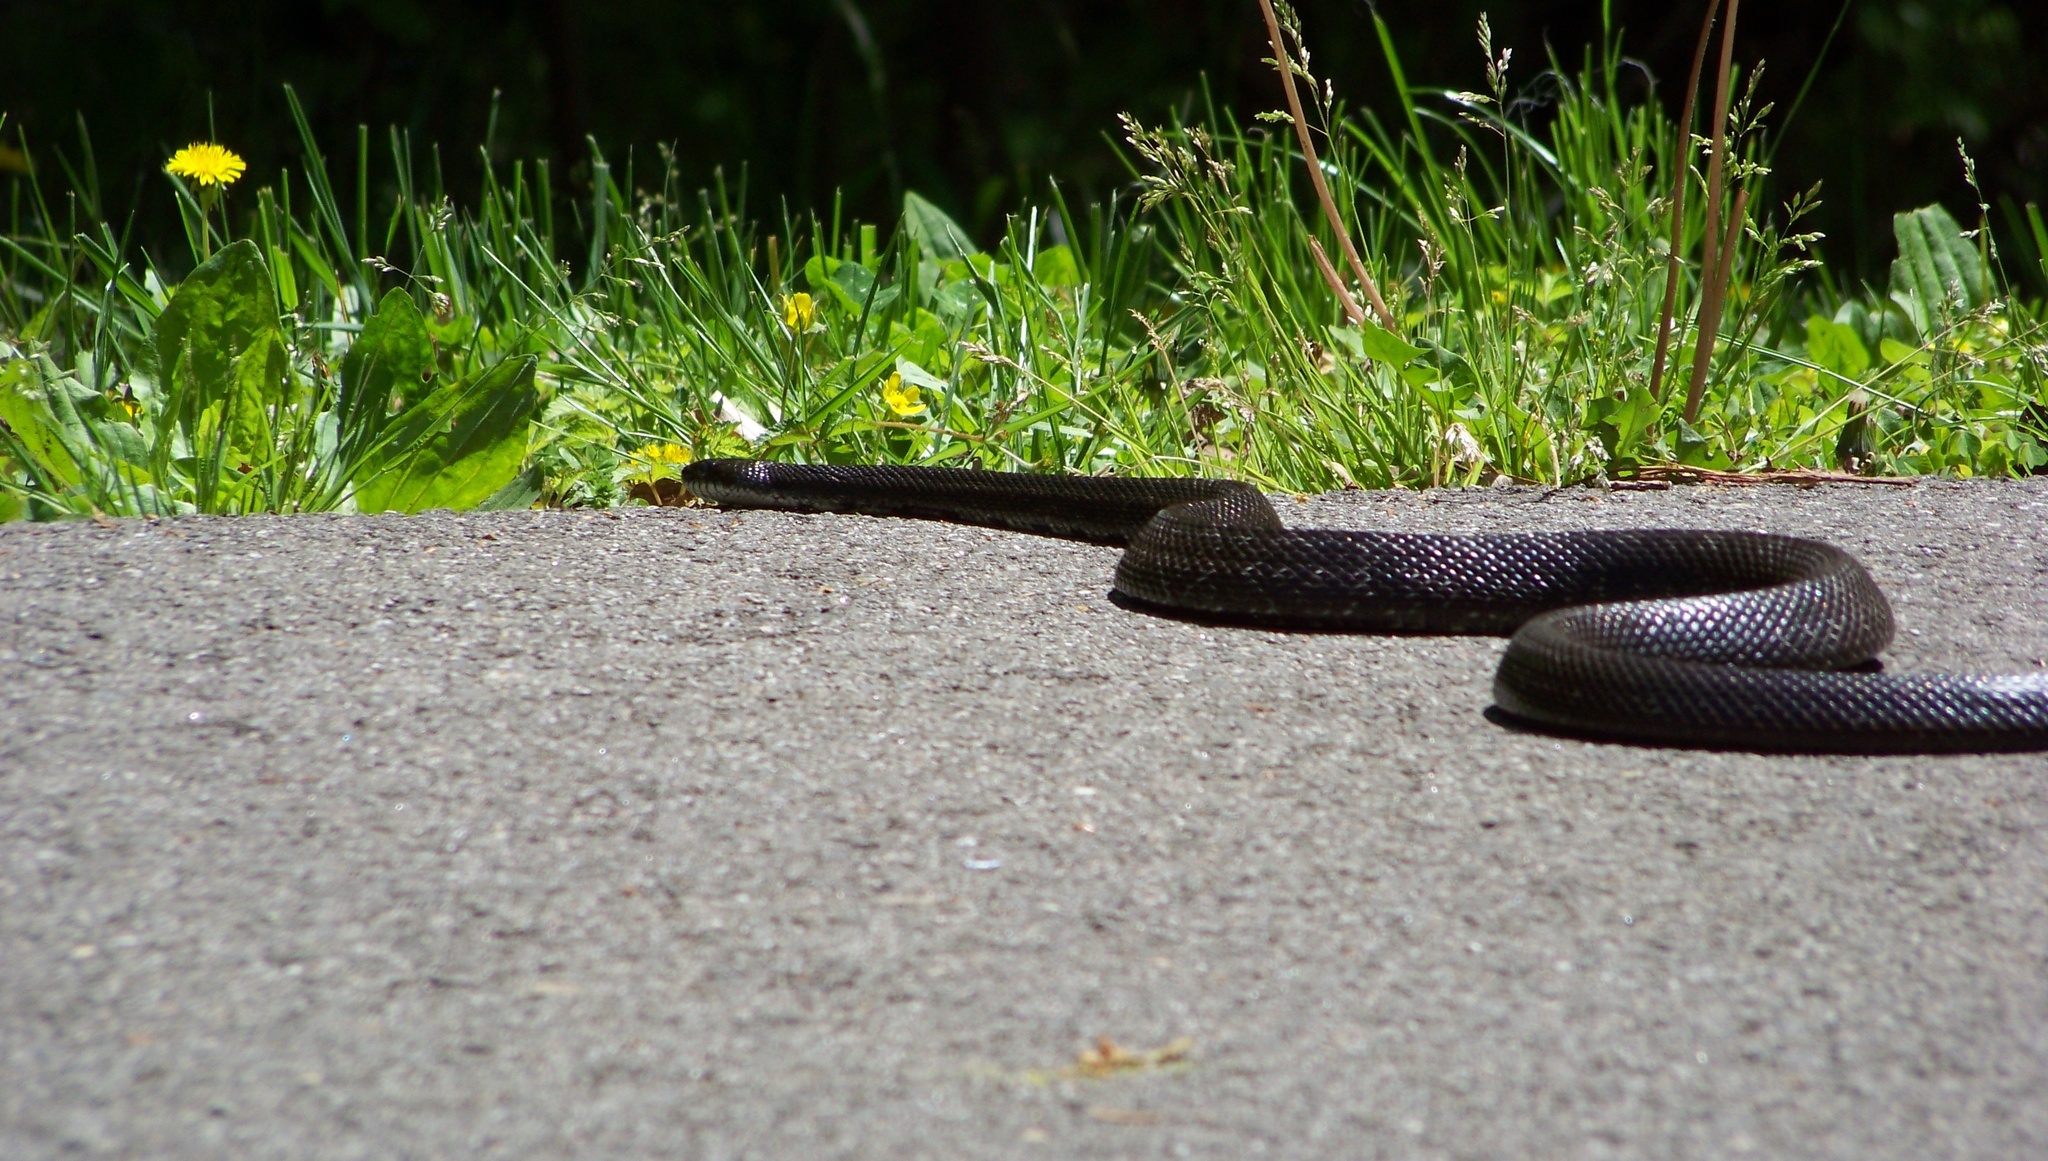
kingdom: Animalia
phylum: Chordata
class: Squamata
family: Colubridae
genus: Pantherophis
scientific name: Pantherophis alleghaniensis
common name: Eastern rat snake
